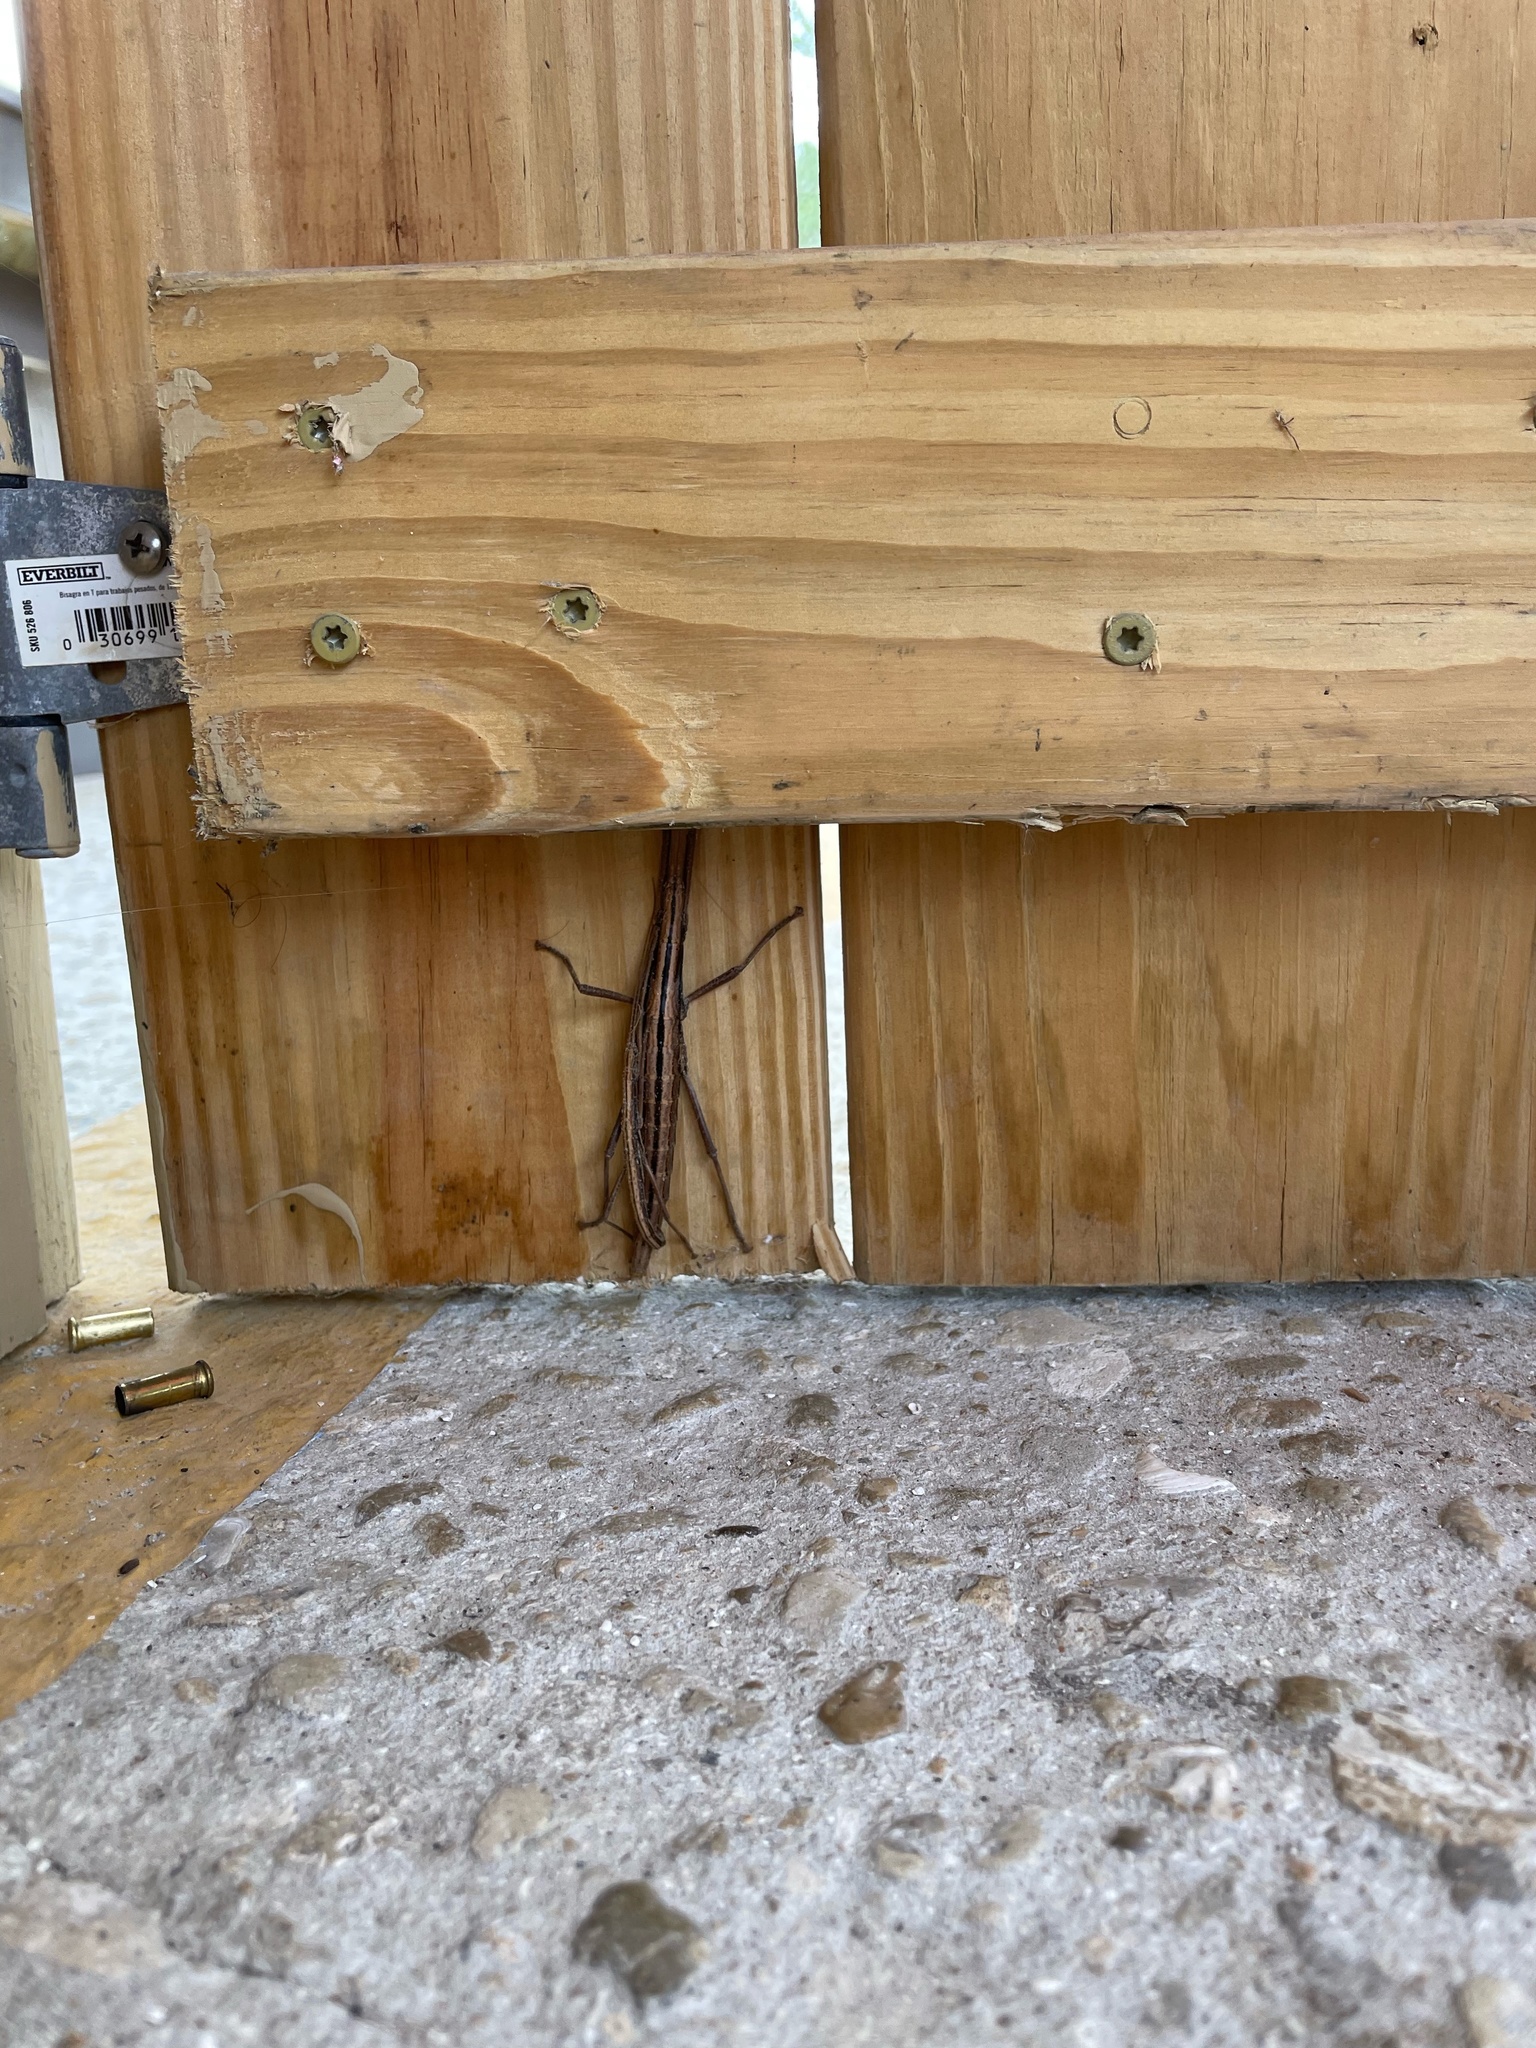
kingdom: Animalia
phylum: Arthropoda
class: Insecta
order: Phasmida
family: Pseudophasmatidae
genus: Anisomorpha
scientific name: Anisomorpha buprestoides
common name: Florida stick insect
